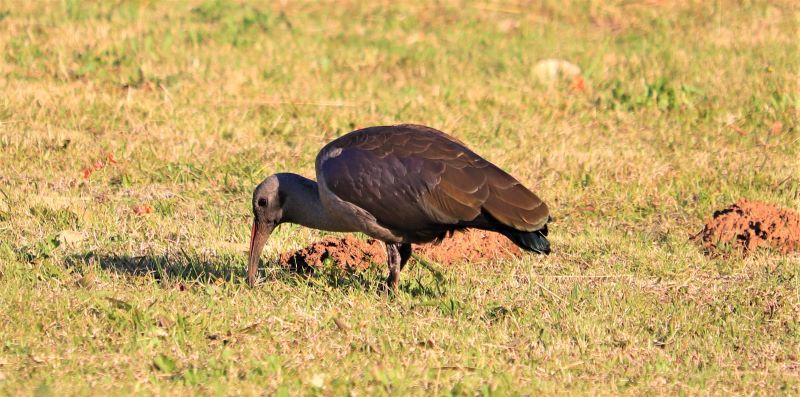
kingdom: Animalia
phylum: Chordata
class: Aves
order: Pelecaniformes
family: Threskiornithidae
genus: Bostrychia
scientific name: Bostrychia hagedash
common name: Hadada ibis
